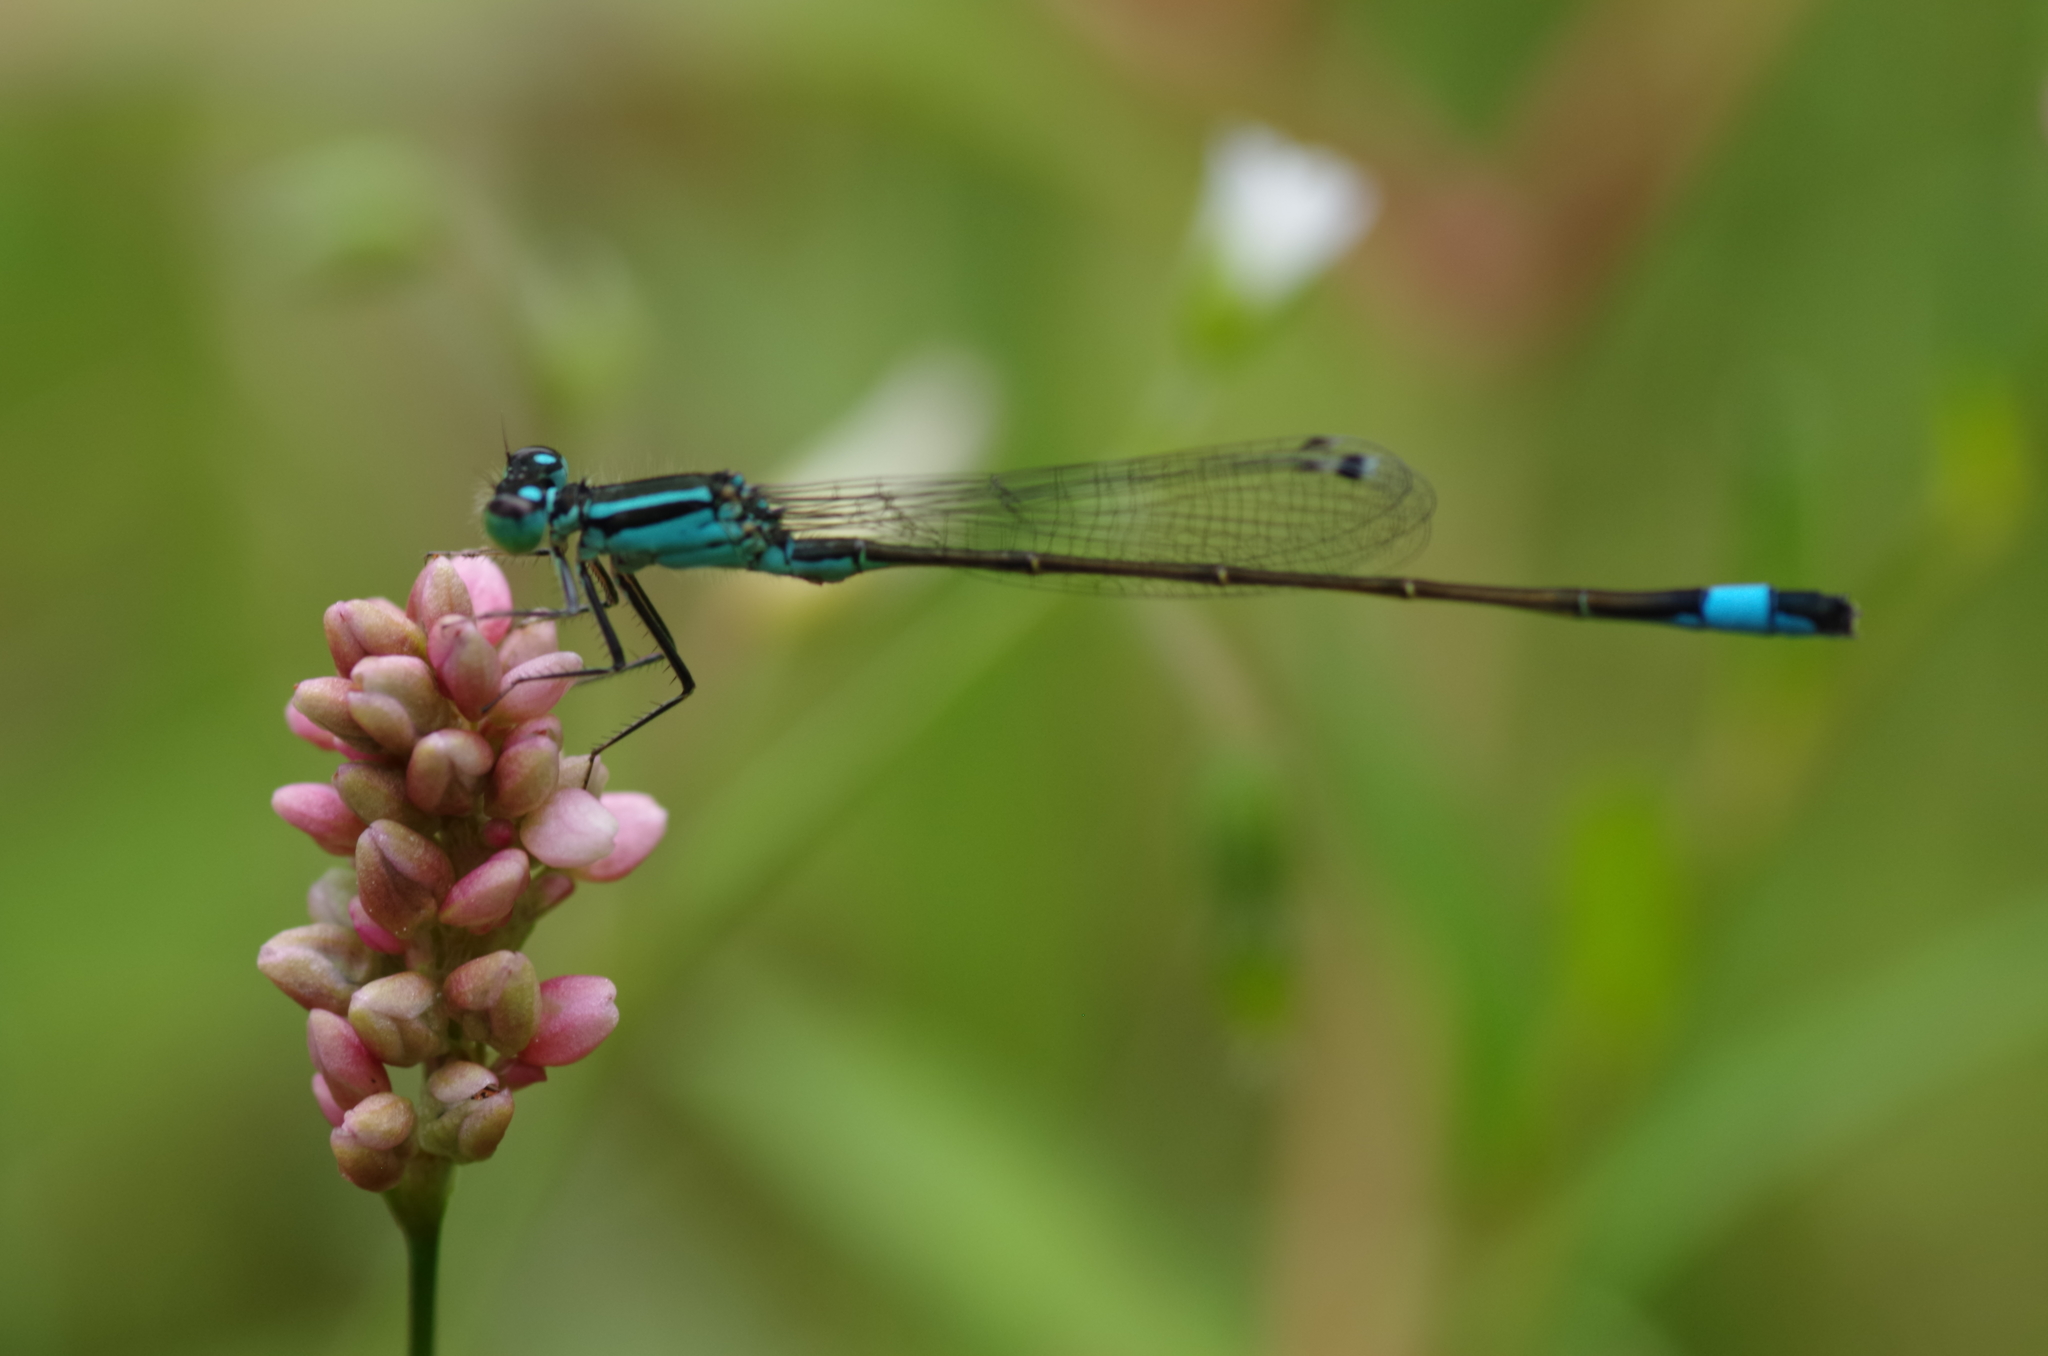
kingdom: Animalia
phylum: Arthropoda
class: Insecta
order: Odonata
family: Coenagrionidae
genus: Ischnura
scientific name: Ischnura elegans
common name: Blue-tailed damselfly
